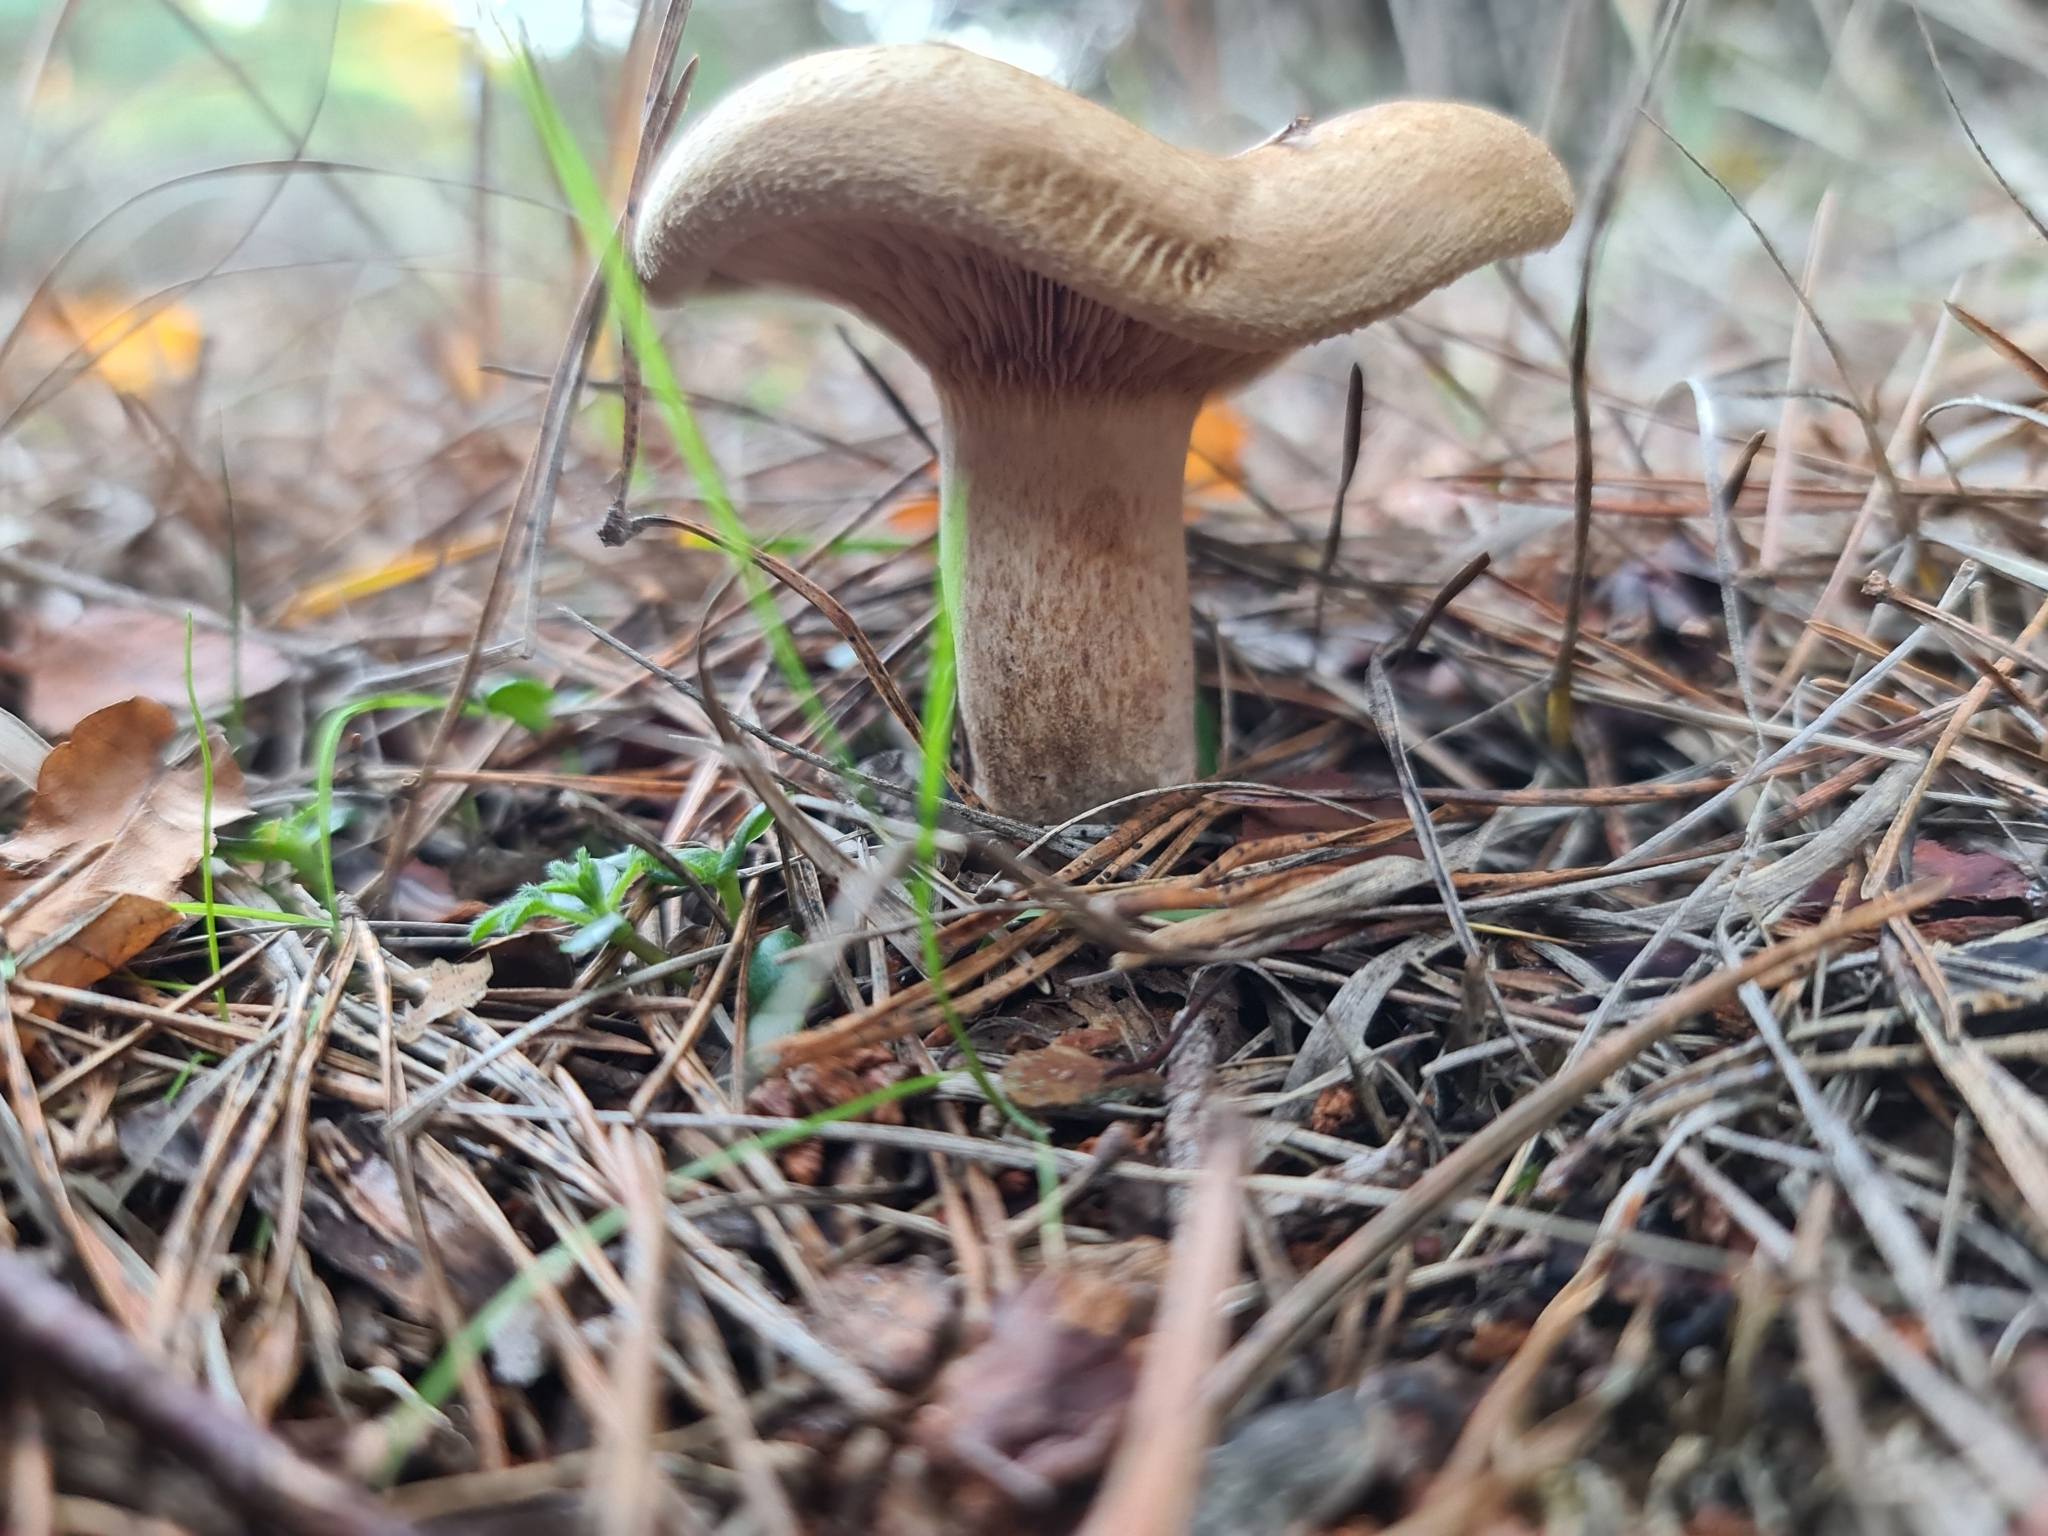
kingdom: Fungi
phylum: Basidiomycota
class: Agaricomycetes
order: Boletales
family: Paxillaceae
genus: Paxillus
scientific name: Paxillus involutus
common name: Brown roll rim
